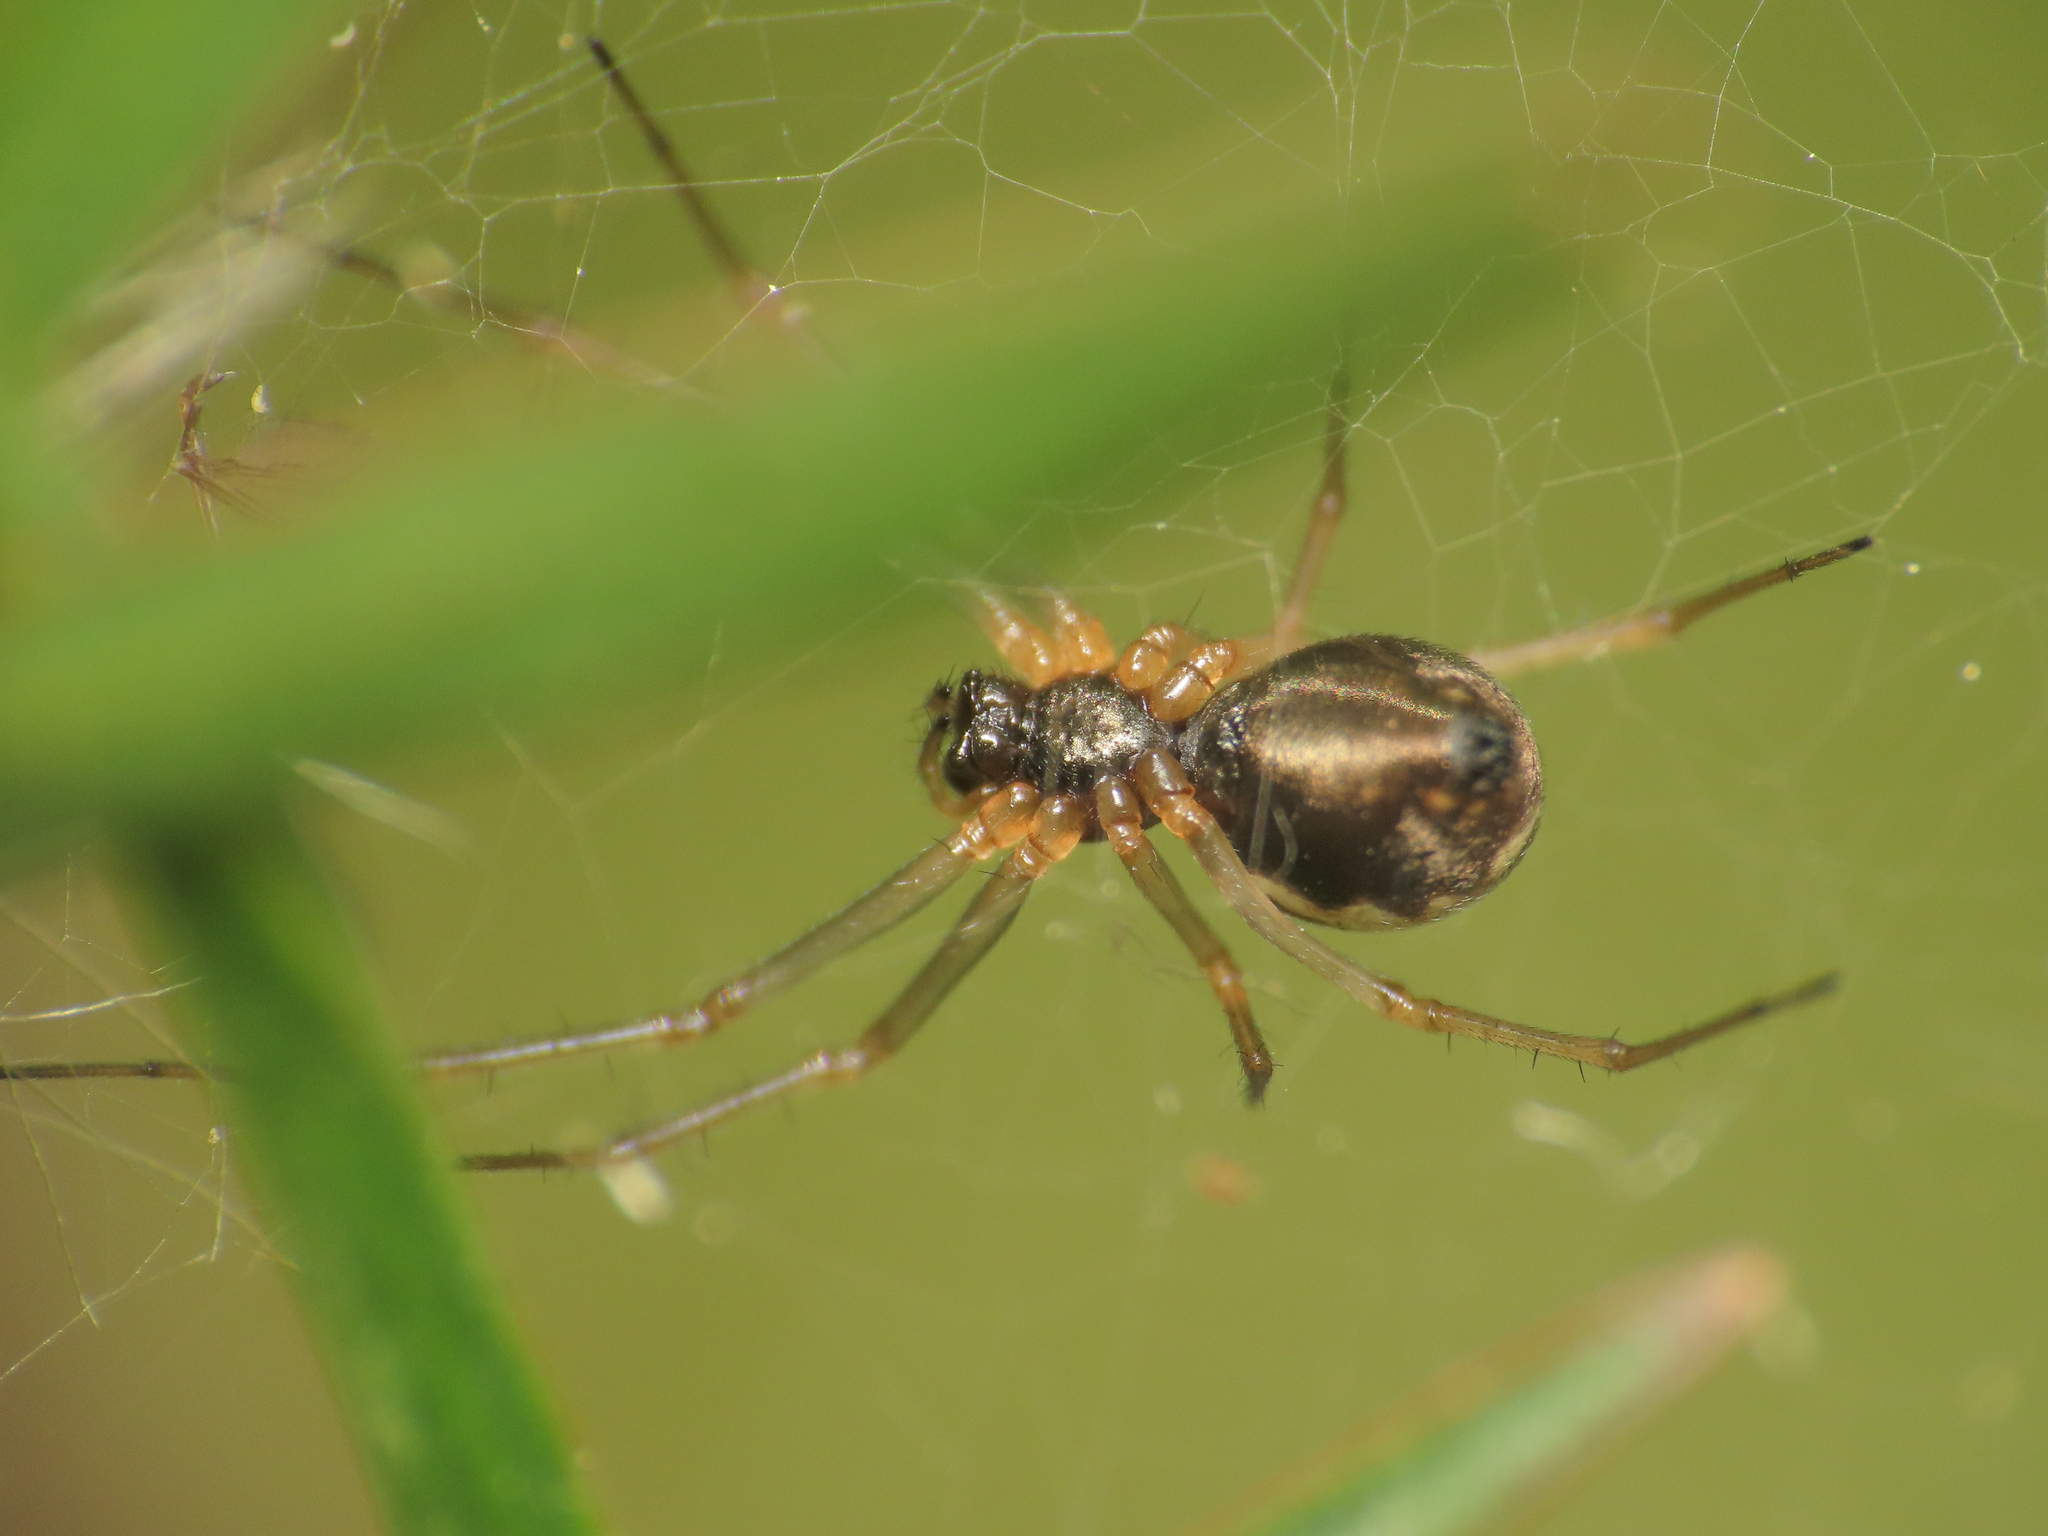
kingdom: Animalia
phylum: Arthropoda
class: Arachnida
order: Araneae
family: Linyphiidae
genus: Microlinyphia
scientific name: Microlinyphia pusilla
